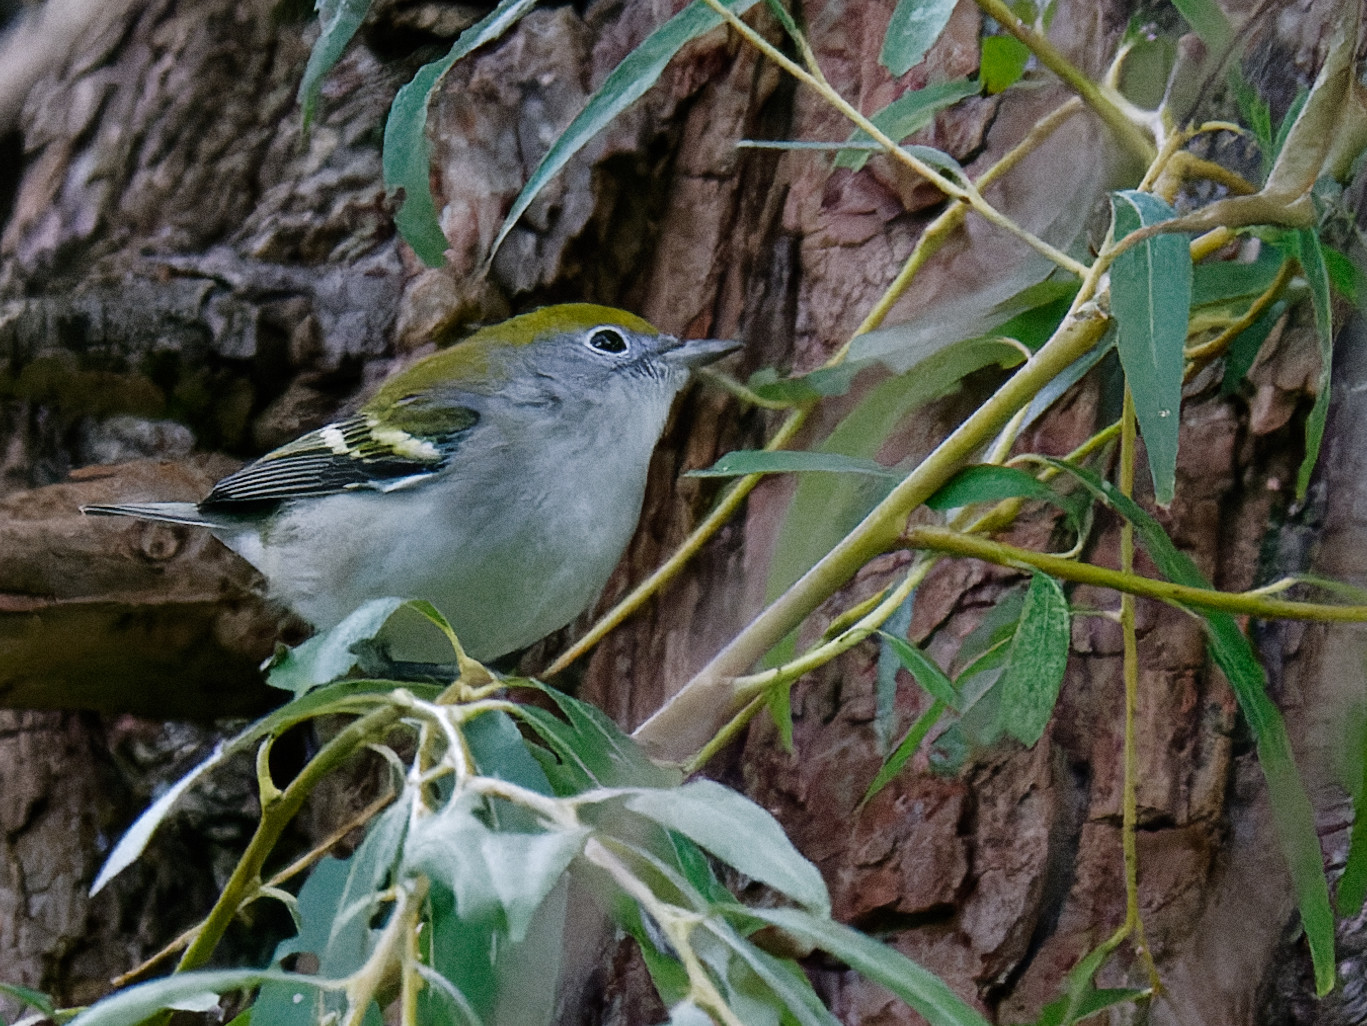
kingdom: Animalia
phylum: Chordata
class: Aves
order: Passeriformes
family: Parulidae
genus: Setophaga
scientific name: Setophaga pensylvanica
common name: Chestnut-sided warbler
